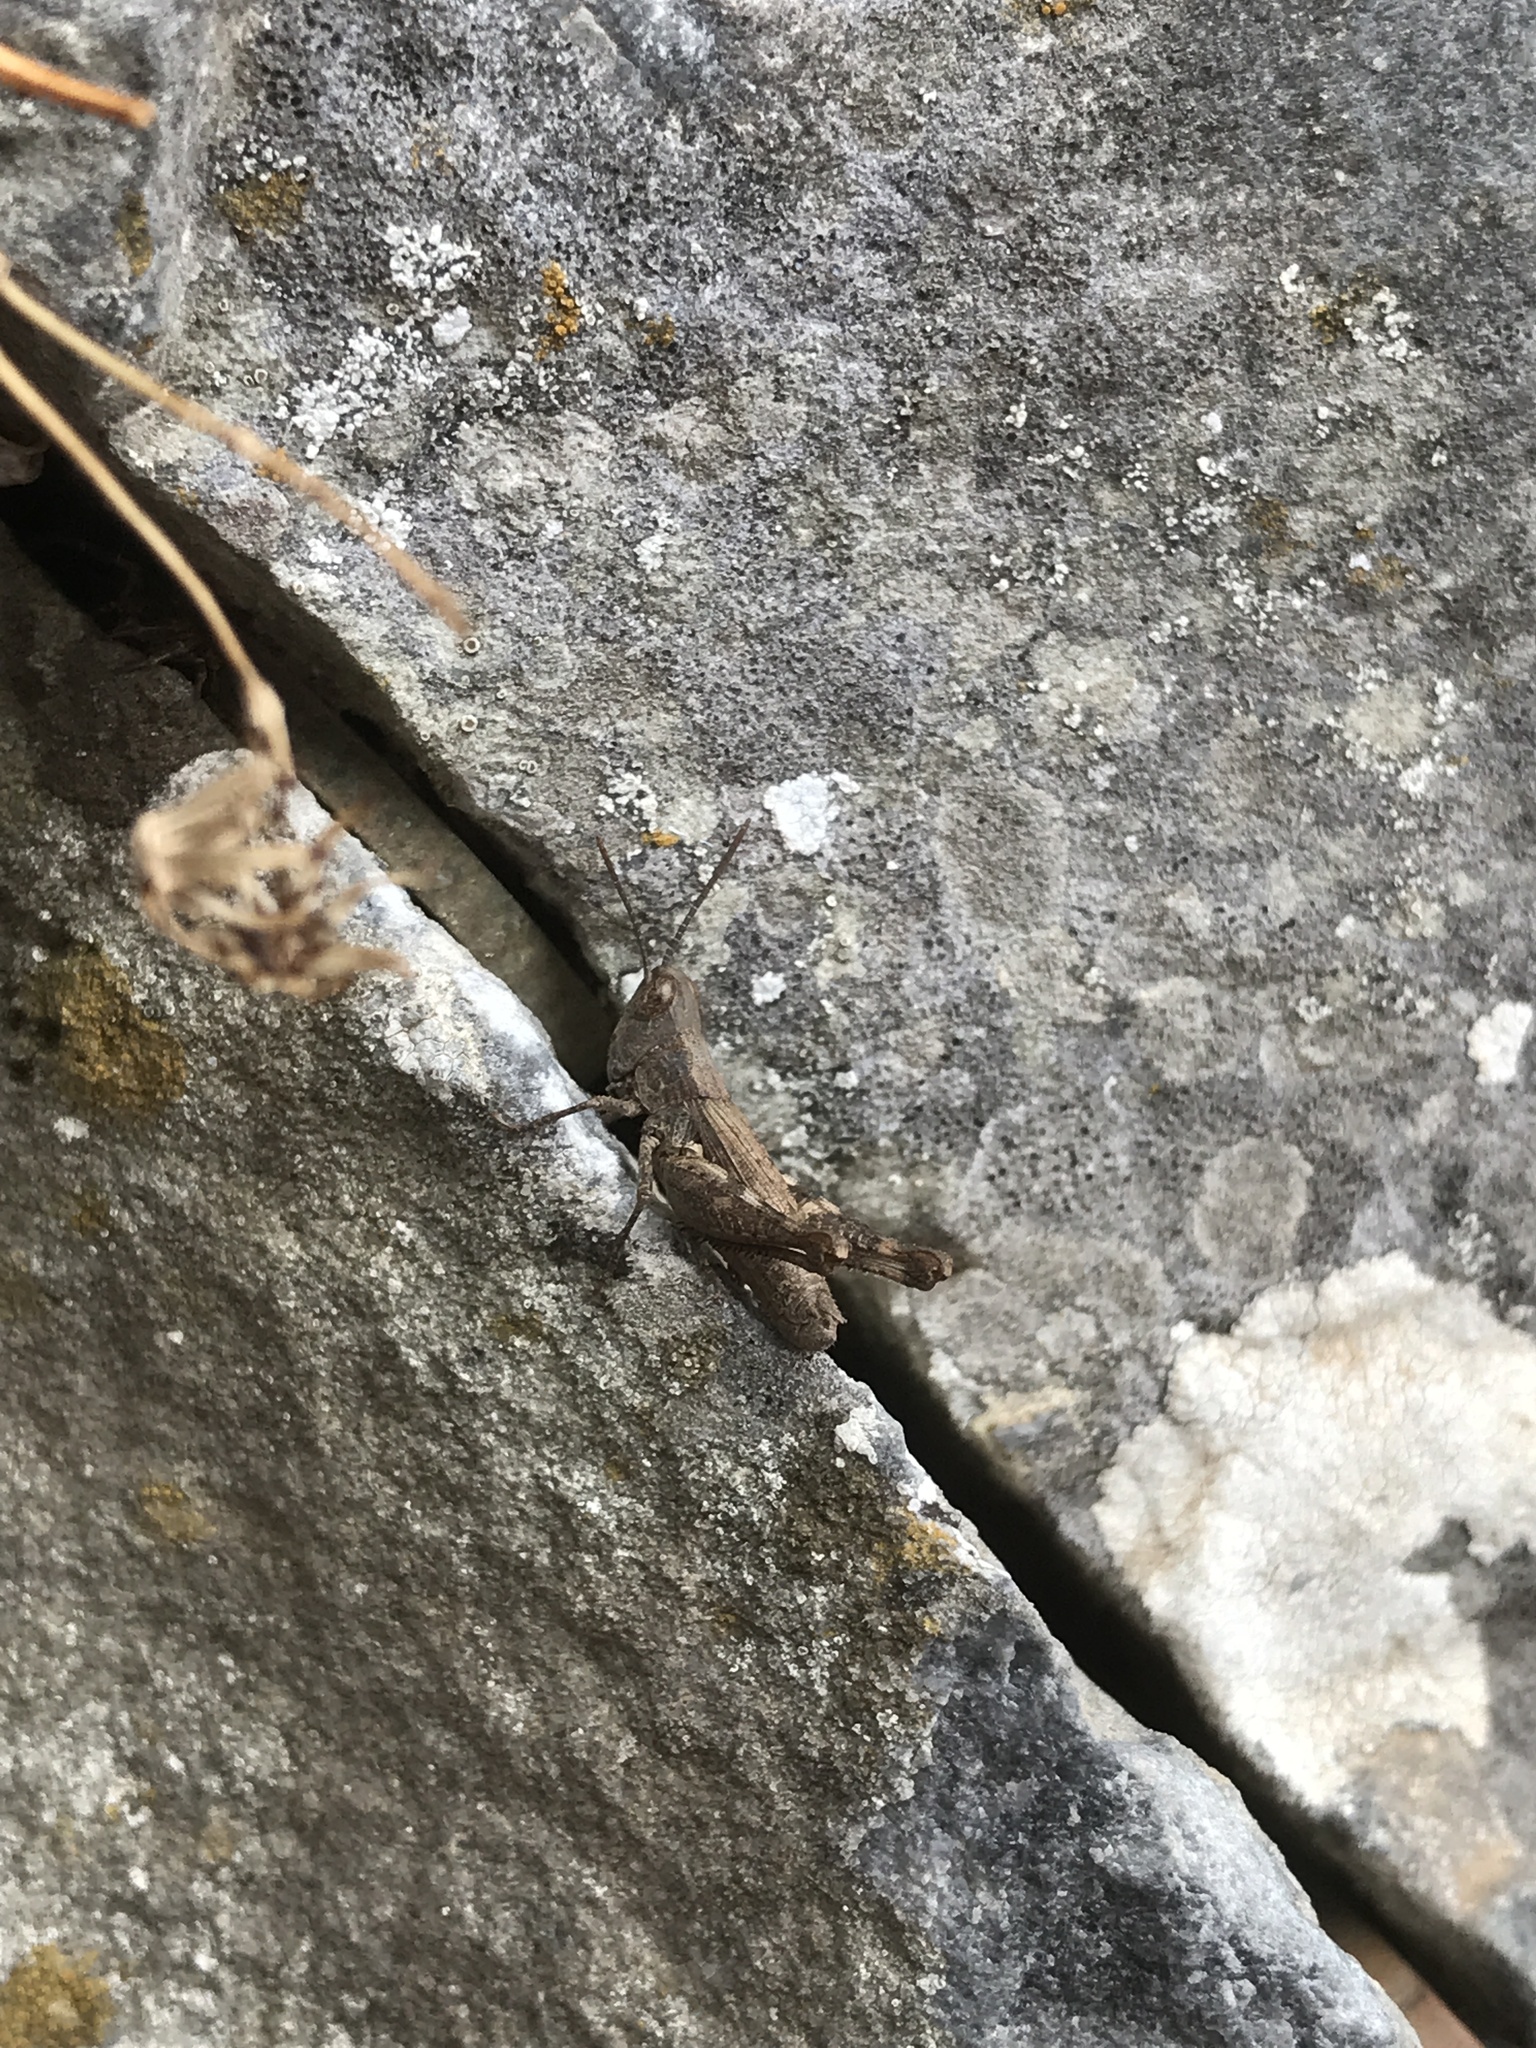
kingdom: Animalia
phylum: Arthropoda
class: Insecta
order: Orthoptera
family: Acrididae
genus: Chorthippus
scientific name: Chorthippus biroi
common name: Cretan grasshopper
